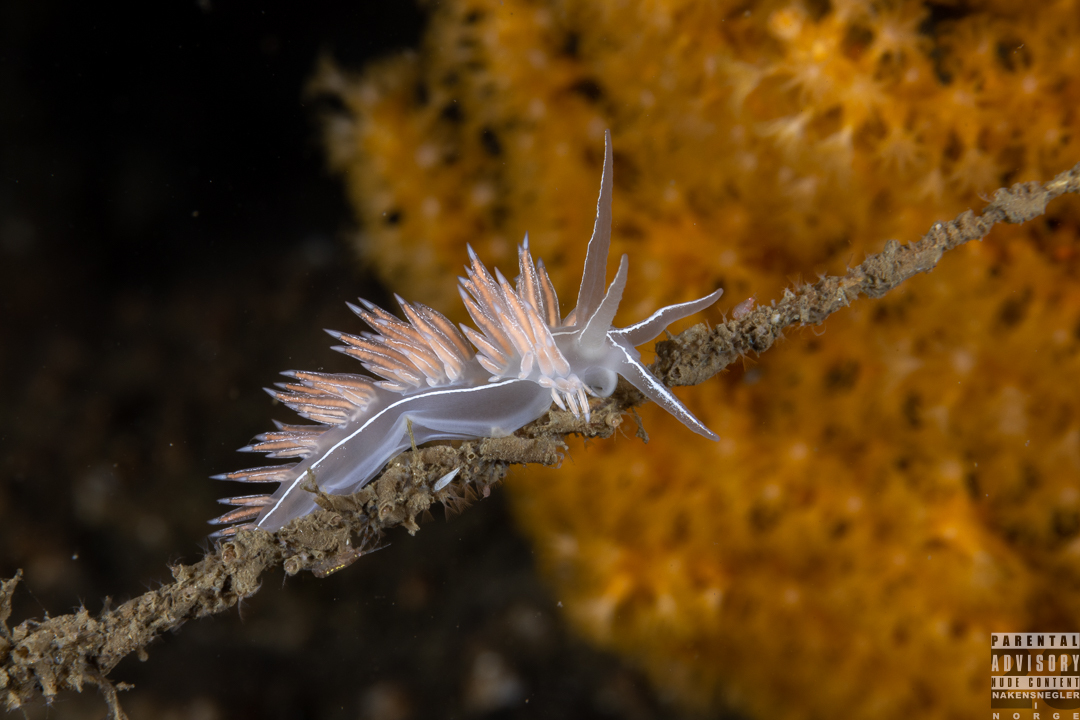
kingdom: Animalia
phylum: Mollusca
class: Gastropoda
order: Nudibranchia
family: Coryphellidae
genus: Coryphella
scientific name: Coryphella chriskaugei
